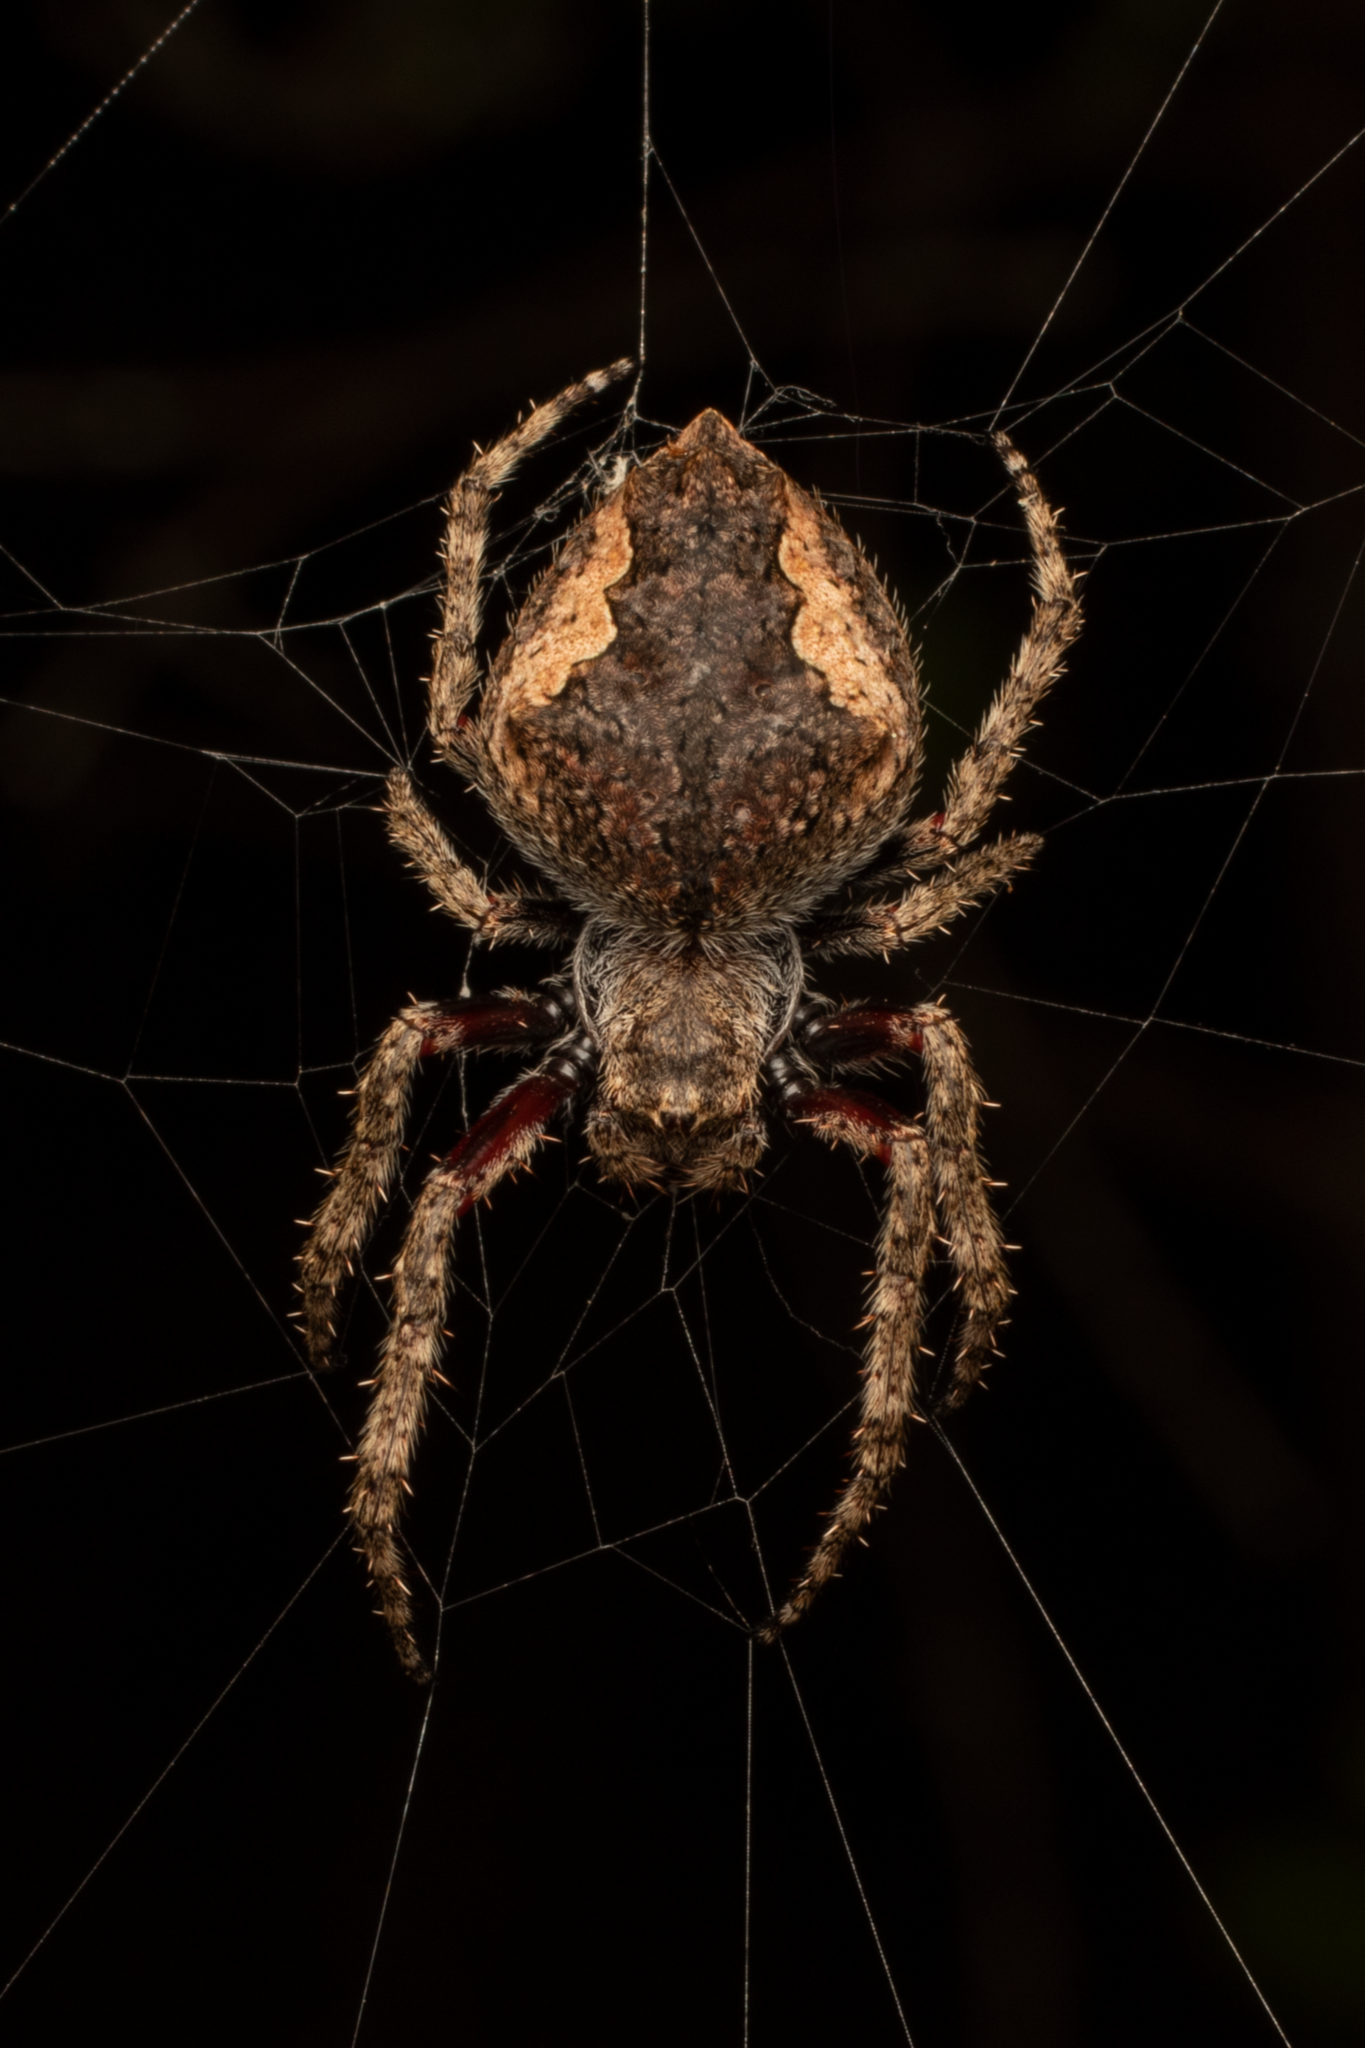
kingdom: Animalia
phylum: Arthropoda
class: Arachnida
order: Araneae
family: Araneidae
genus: Eriophora
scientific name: Eriophora pustulosa
